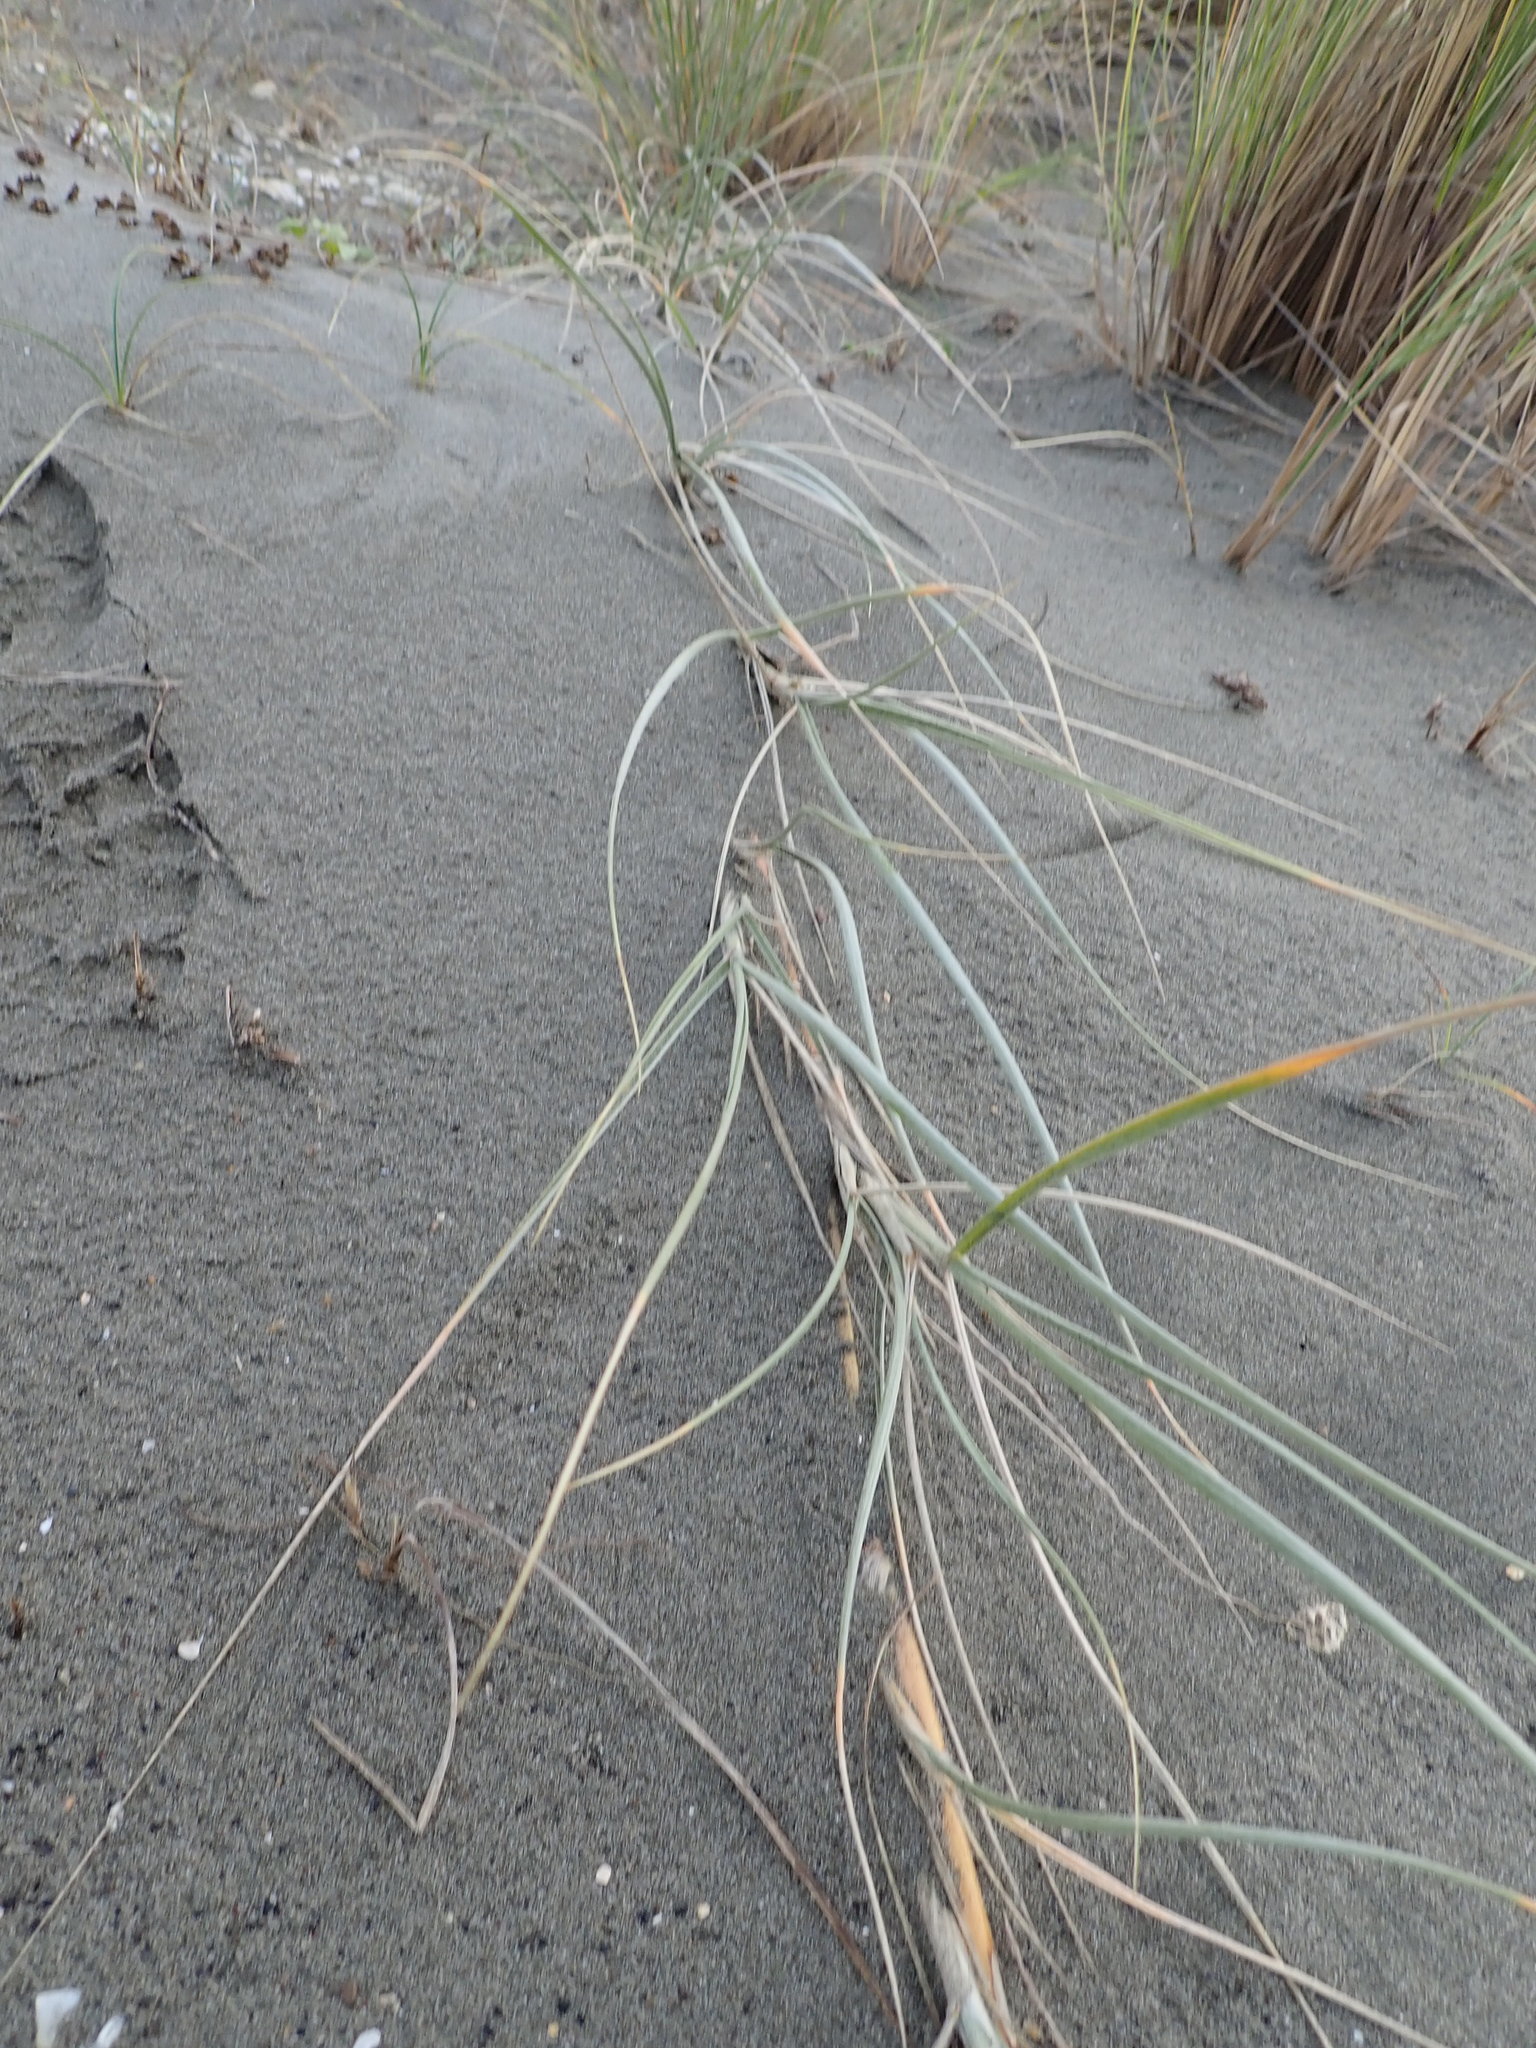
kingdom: Plantae
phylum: Tracheophyta
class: Liliopsida
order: Poales
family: Poaceae
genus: Spinifex
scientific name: Spinifex sericeus
